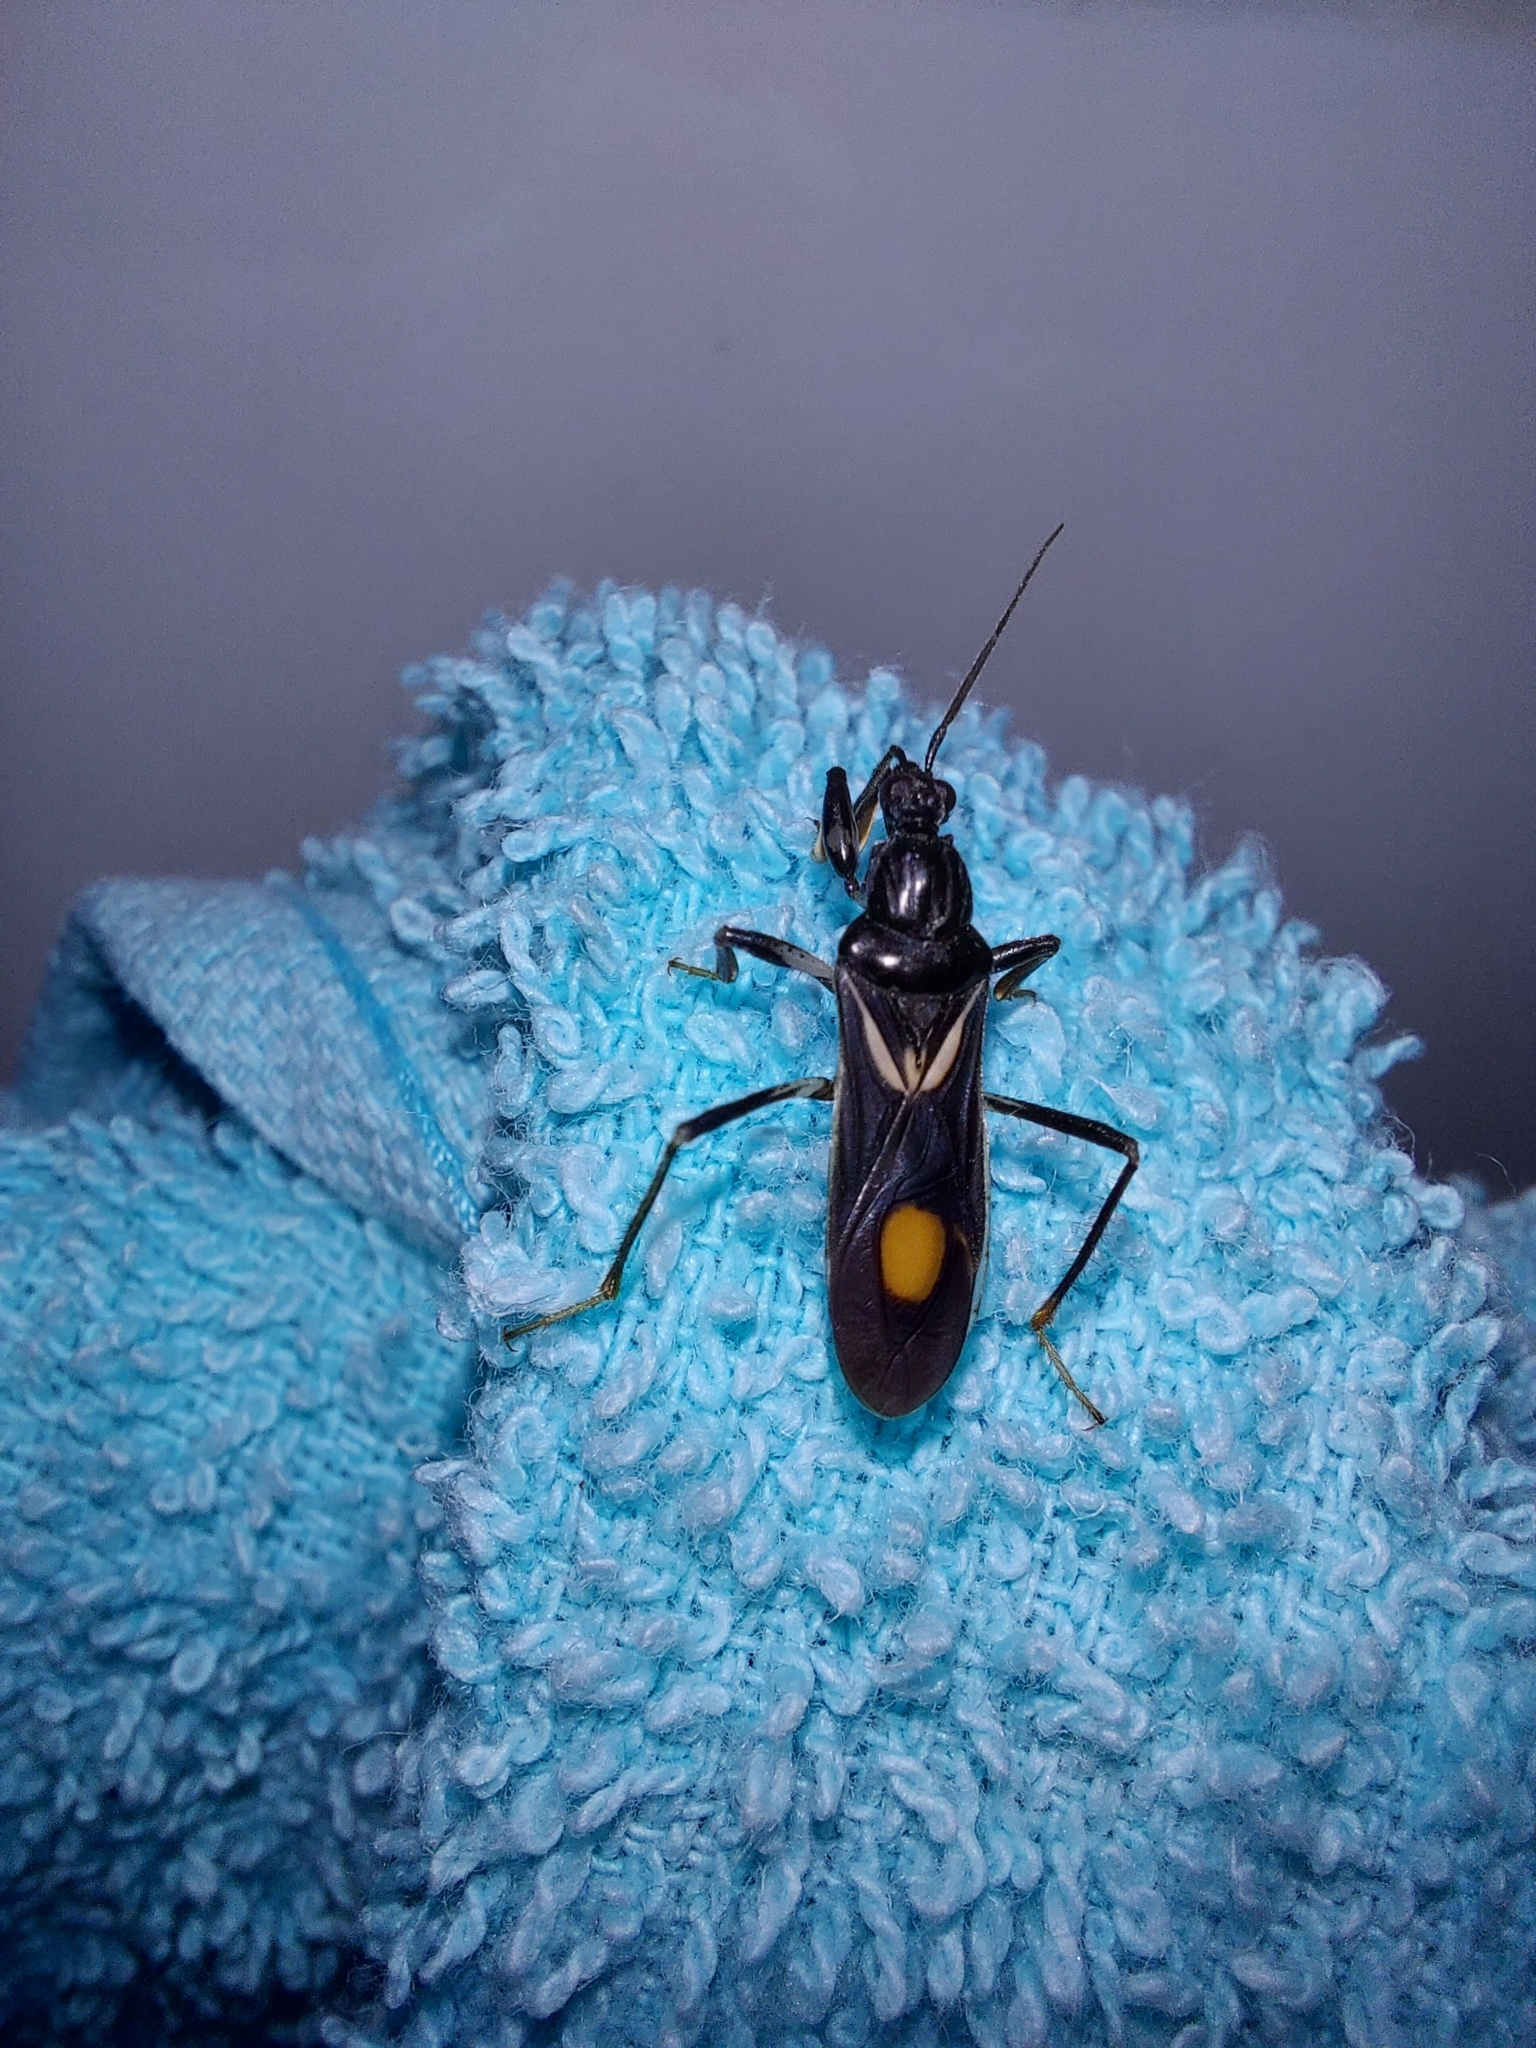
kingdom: Animalia
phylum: Arthropoda
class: Insecta
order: Hemiptera
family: Reduviidae
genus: Rasahus
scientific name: Rasahus hamatus
